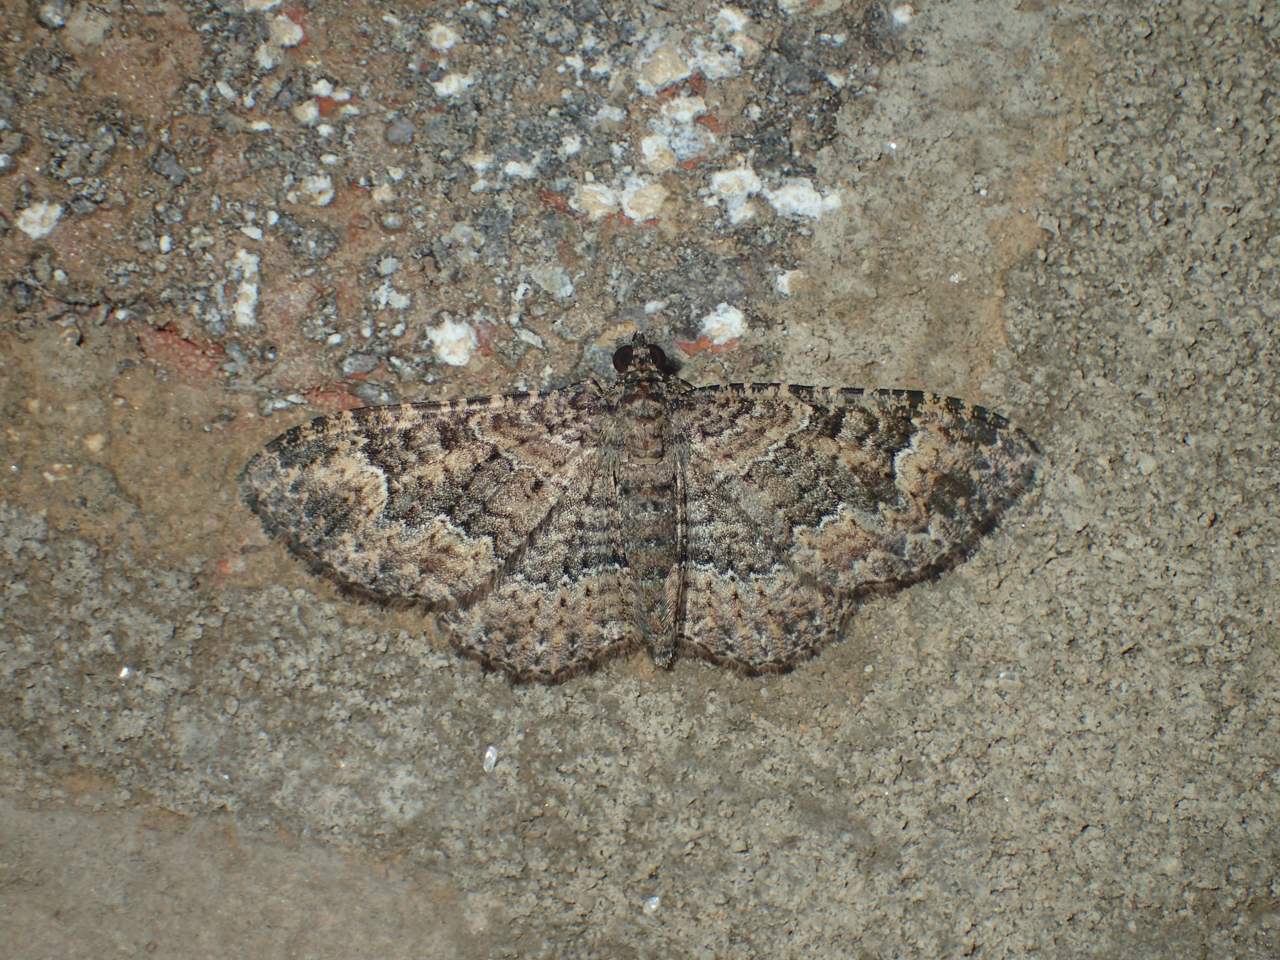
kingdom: Animalia
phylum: Arthropoda
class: Insecta
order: Lepidoptera
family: Geometridae
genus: Disclisioprocta
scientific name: Disclisioprocta stellata
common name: Somber carpet
